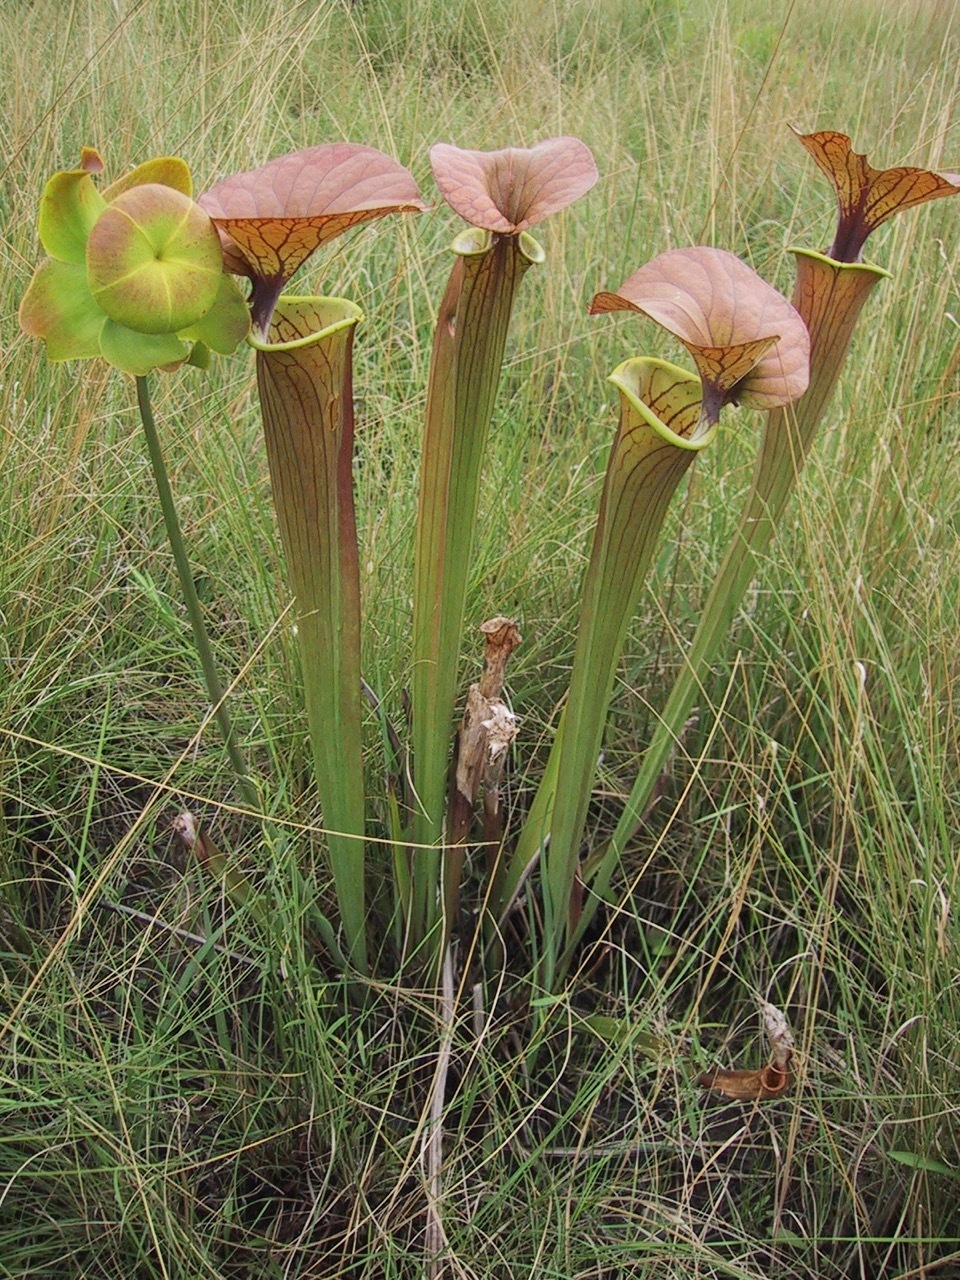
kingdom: Plantae
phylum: Tracheophyta
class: Magnoliopsida
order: Ericales
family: Sarraceniaceae
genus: Sarracenia
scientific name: Sarracenia flava
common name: Trumpets
